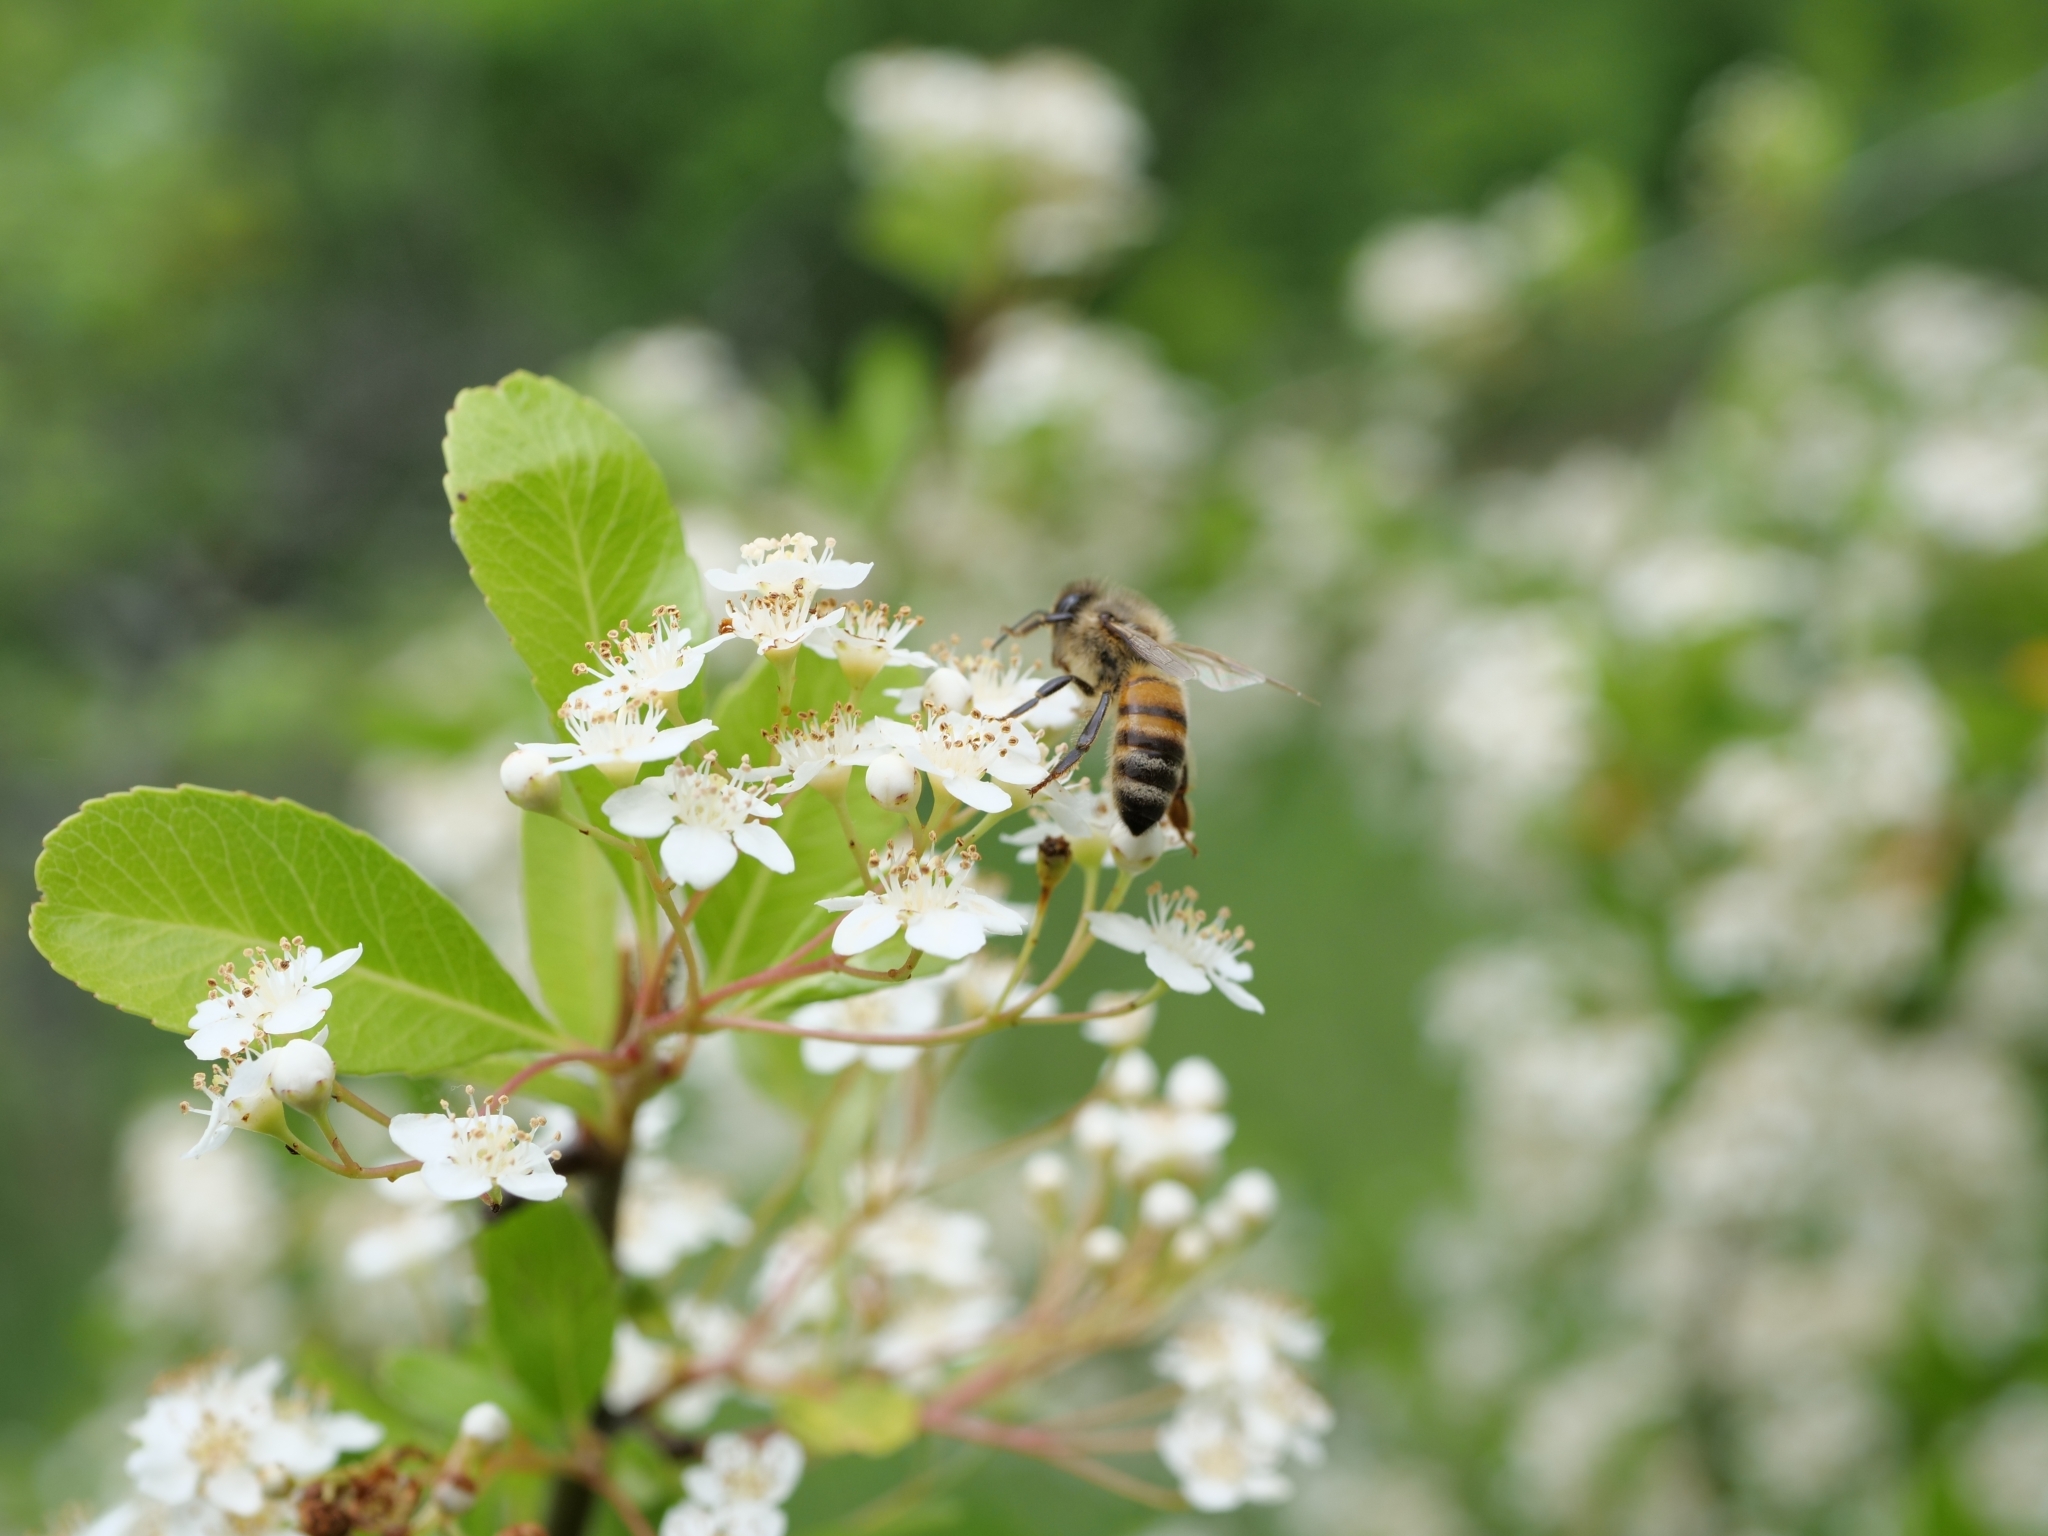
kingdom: Animalia
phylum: Arthropoda
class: Insecta
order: Hymenoptera
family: Apidae
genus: Apis
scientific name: Apis mellifera
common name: Honey bee
